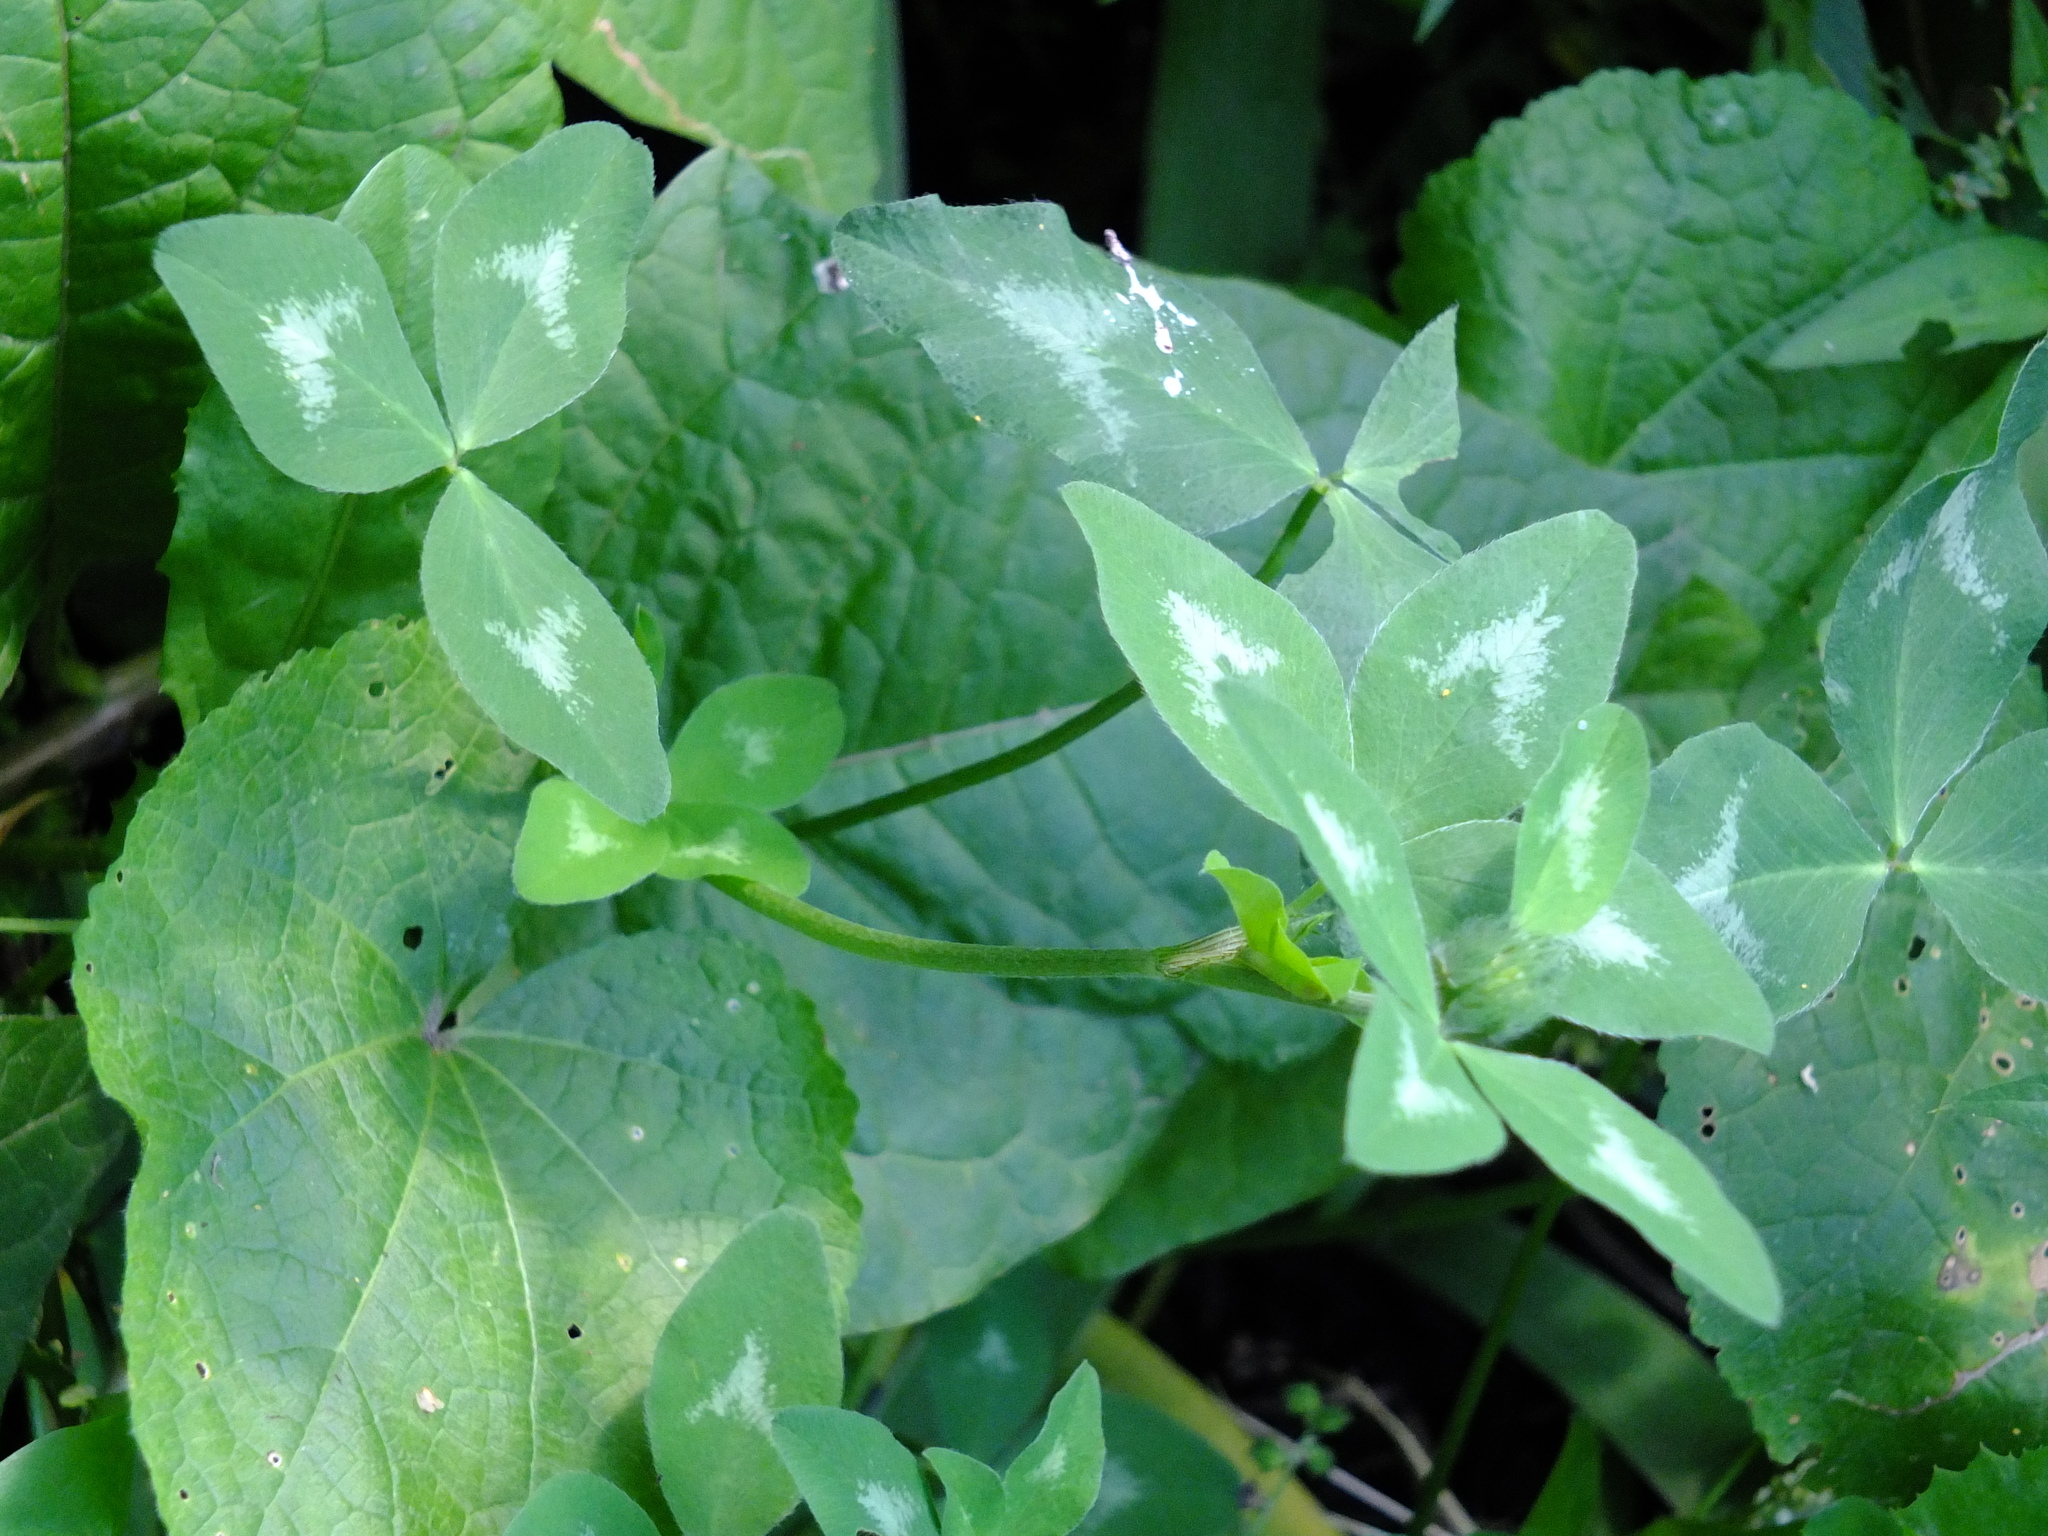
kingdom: Plantae
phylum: Tracheophyta
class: Magnoliopsida
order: Fabales
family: Fabaceae
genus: Trifolium
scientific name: Trifolium pratense
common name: Red clover
